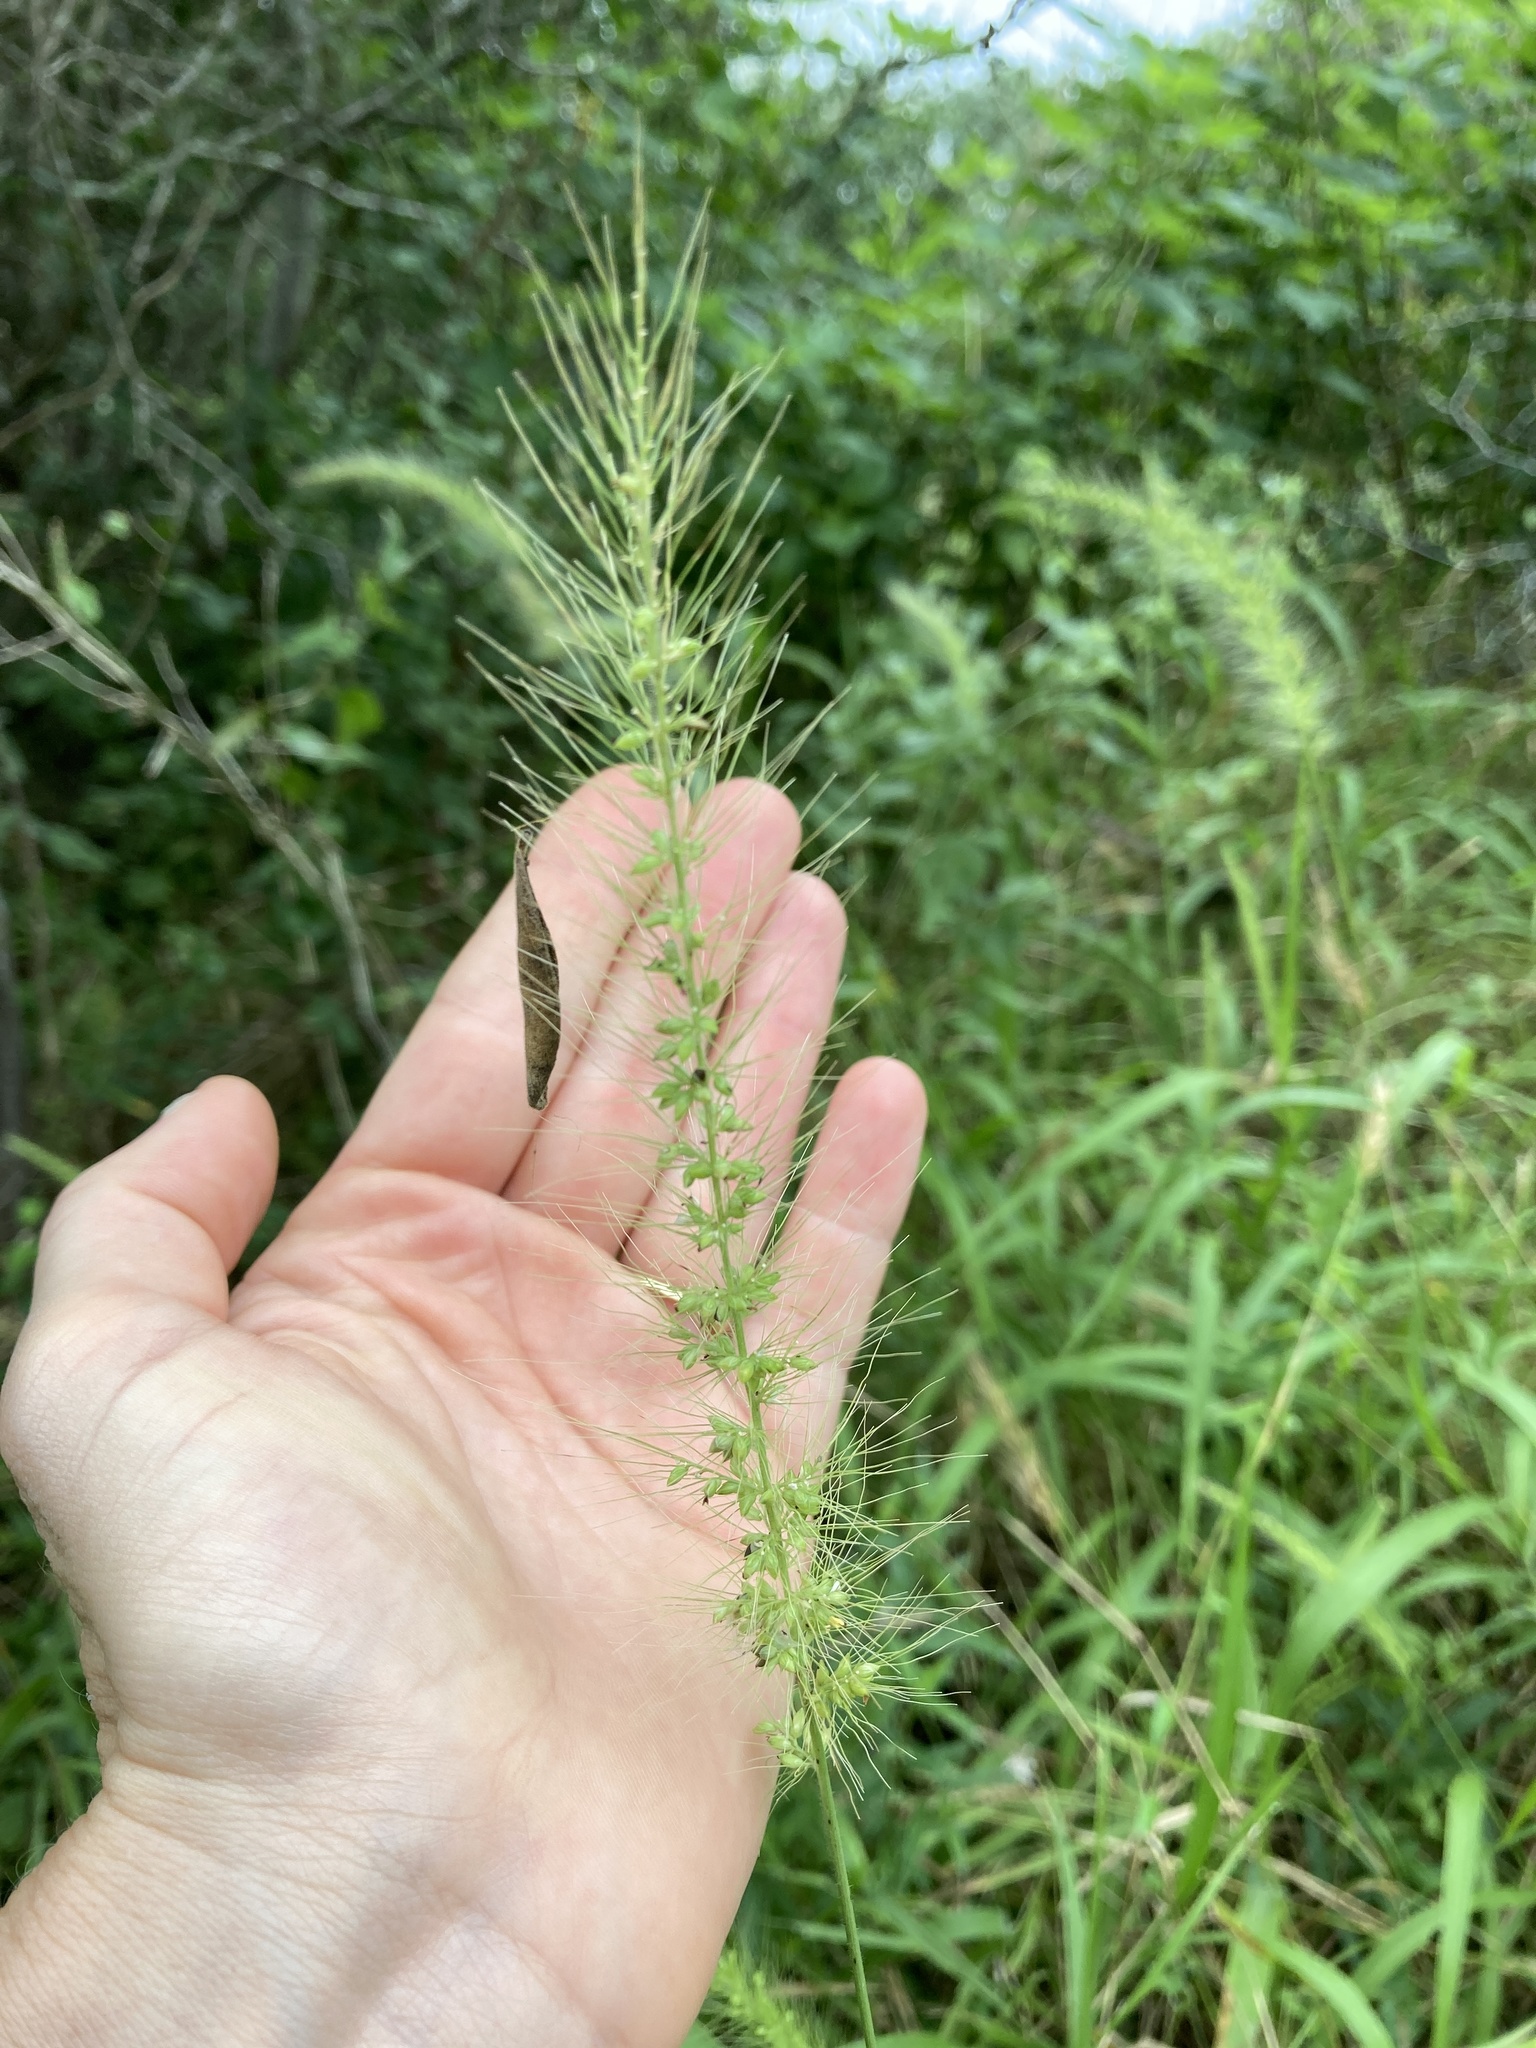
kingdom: Plantae
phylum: Tracheophyta
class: Liliopsida
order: Poales
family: Poaceae
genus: Setaria
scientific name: Setaria scheelei
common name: Southwestern bristle grass
